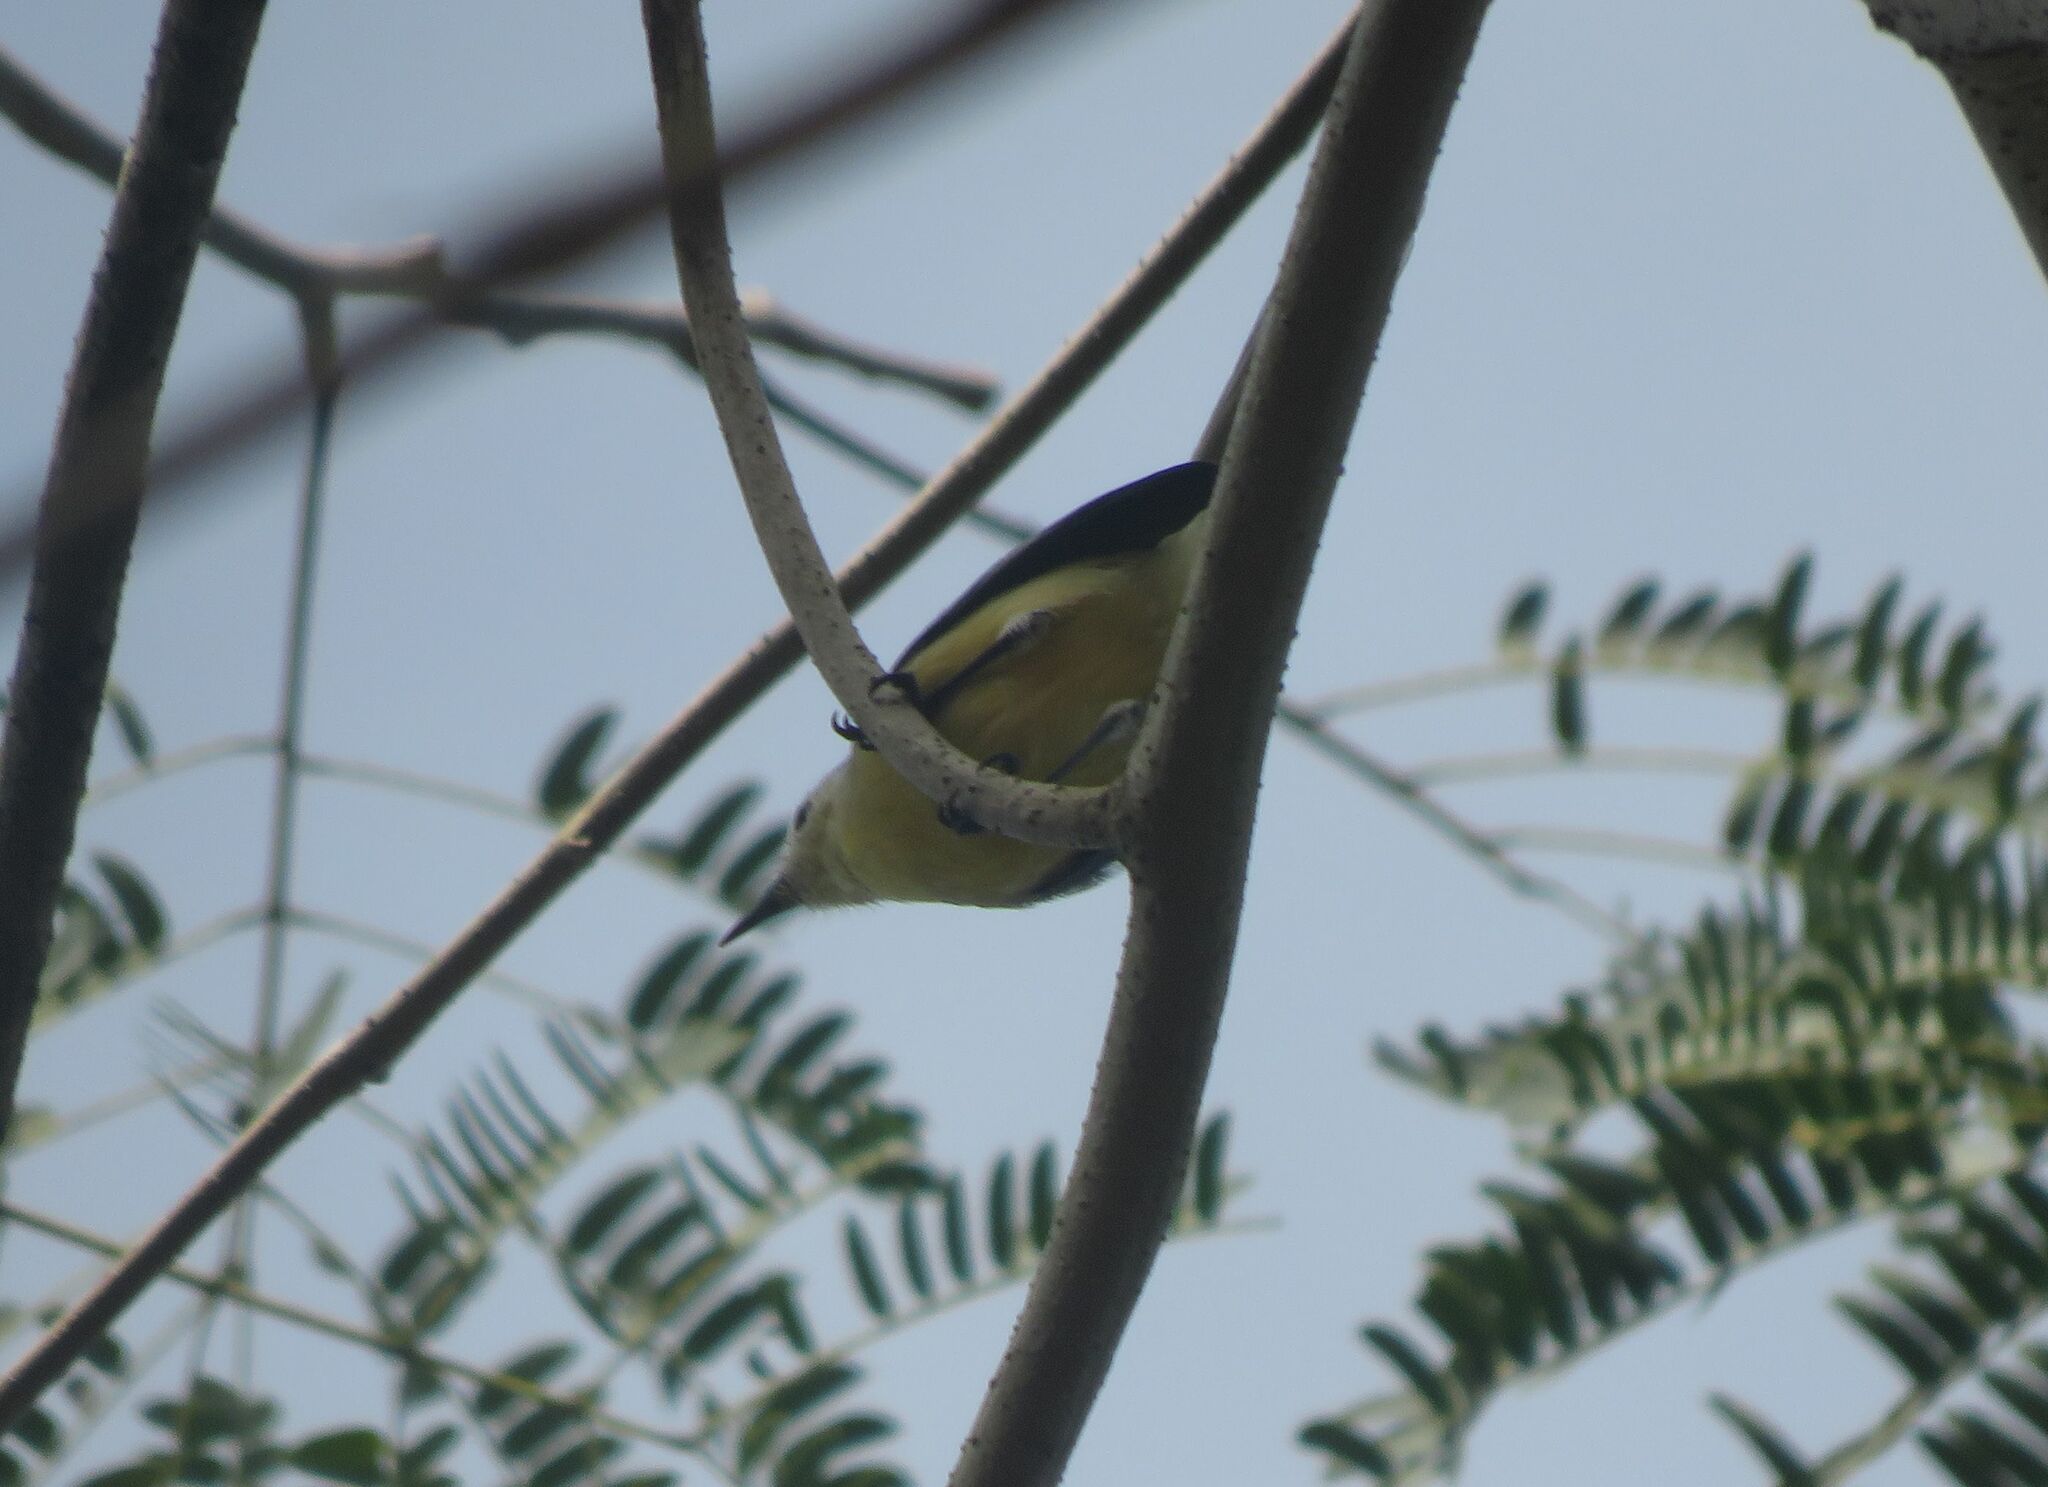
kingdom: Animalia
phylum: Chordata
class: Aves
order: Passeriformes
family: Polioptilidae
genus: Polioptila
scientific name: Polioptila lactea
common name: Creamy-bellied gnatcatcher
